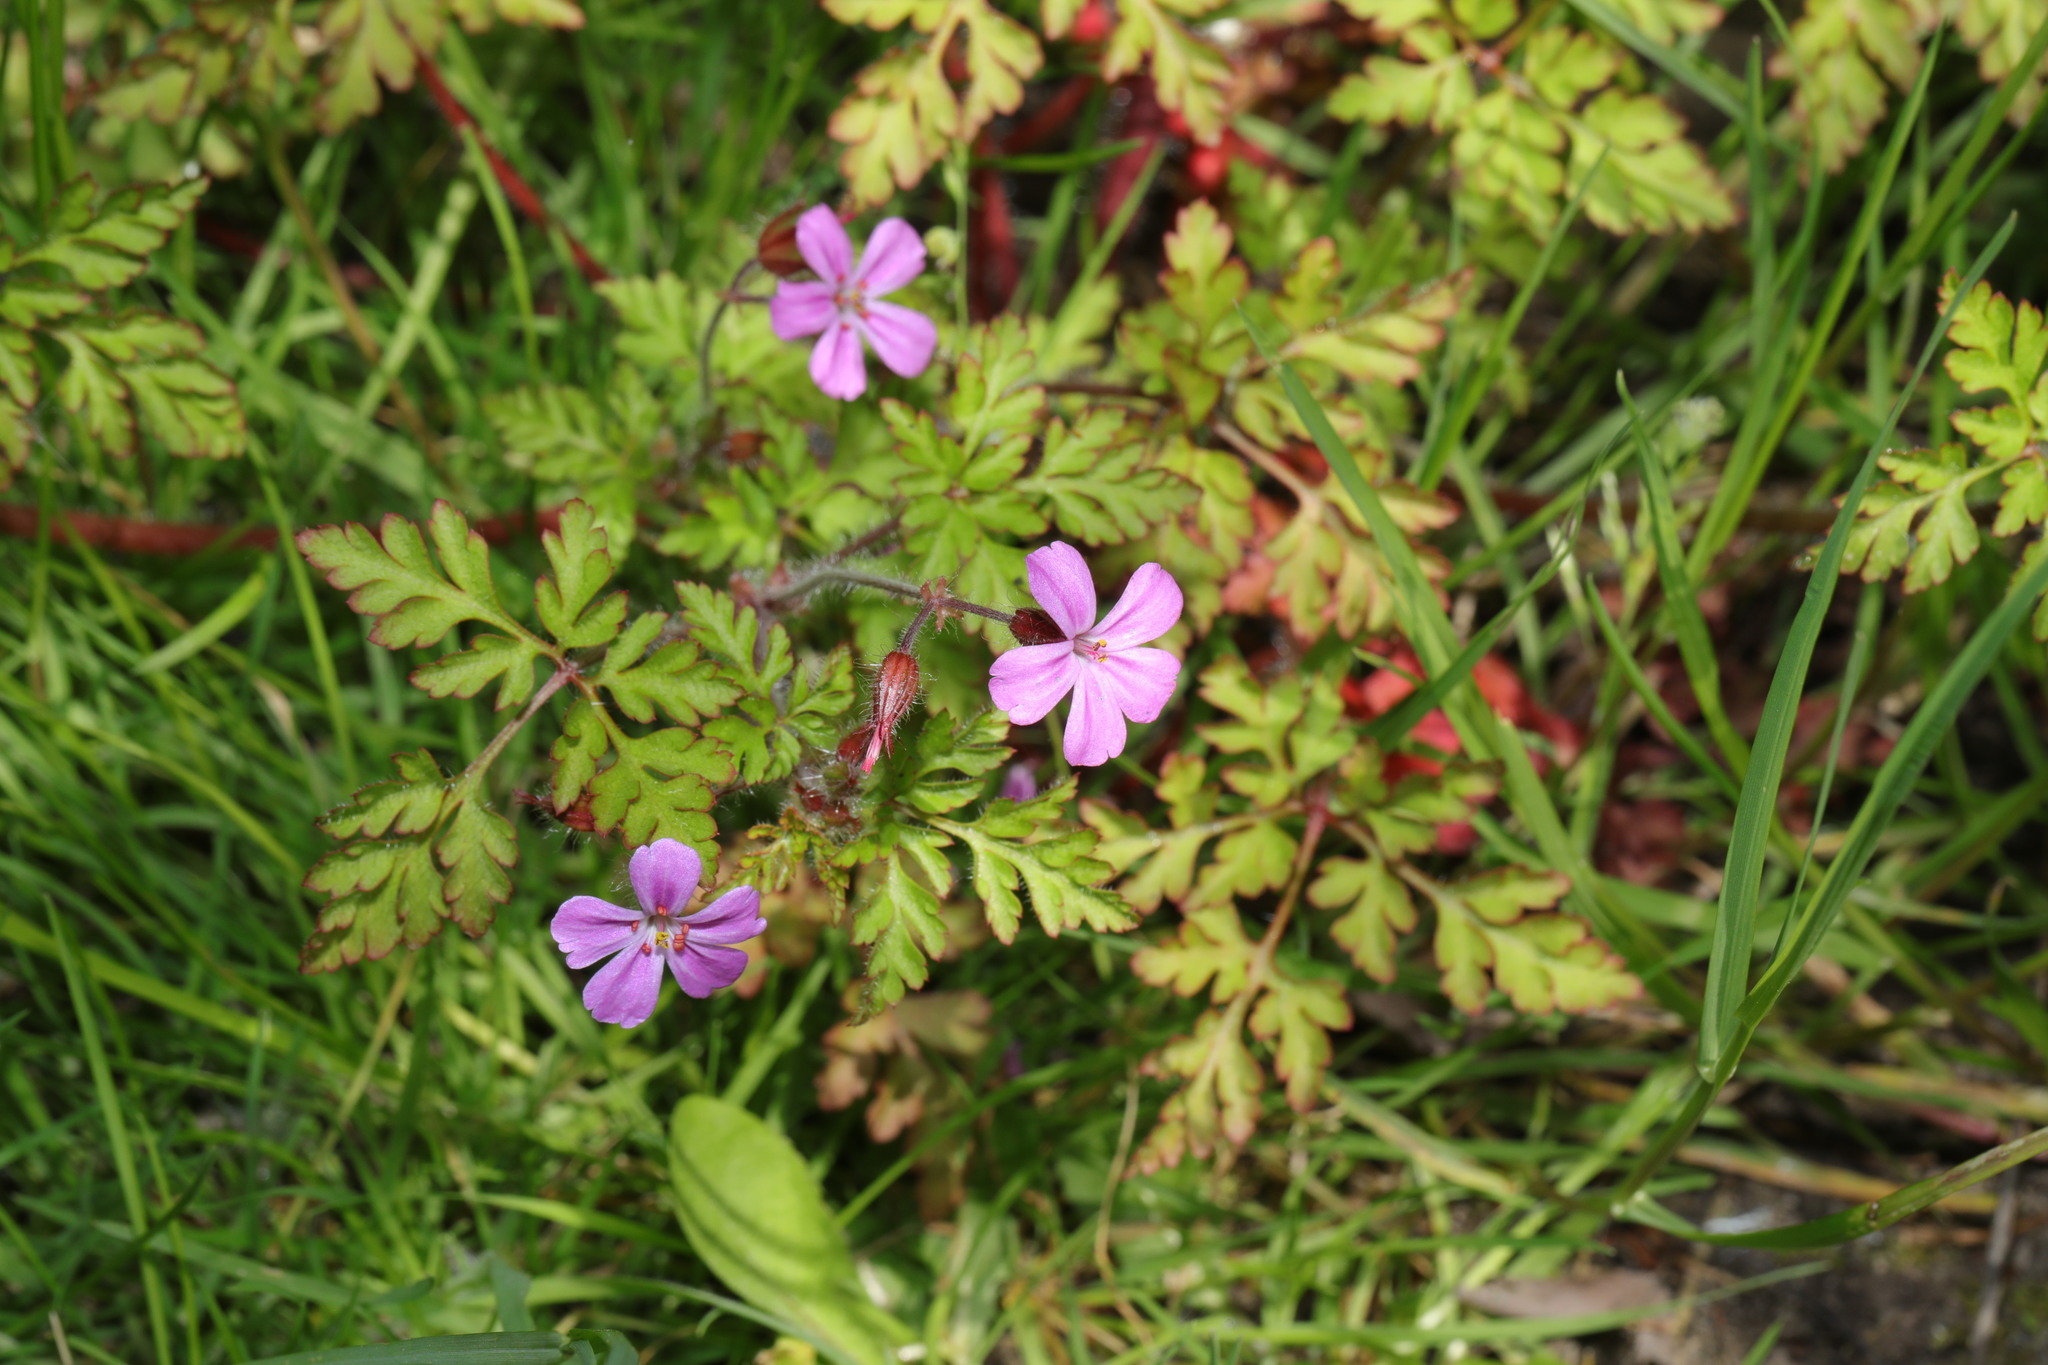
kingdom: Plantae
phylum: Tracheophyta
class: Magnoliopsida
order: Geraniales
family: Geraniaceae
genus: Geranium
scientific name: Geranium robertianum
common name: Herb-robert
